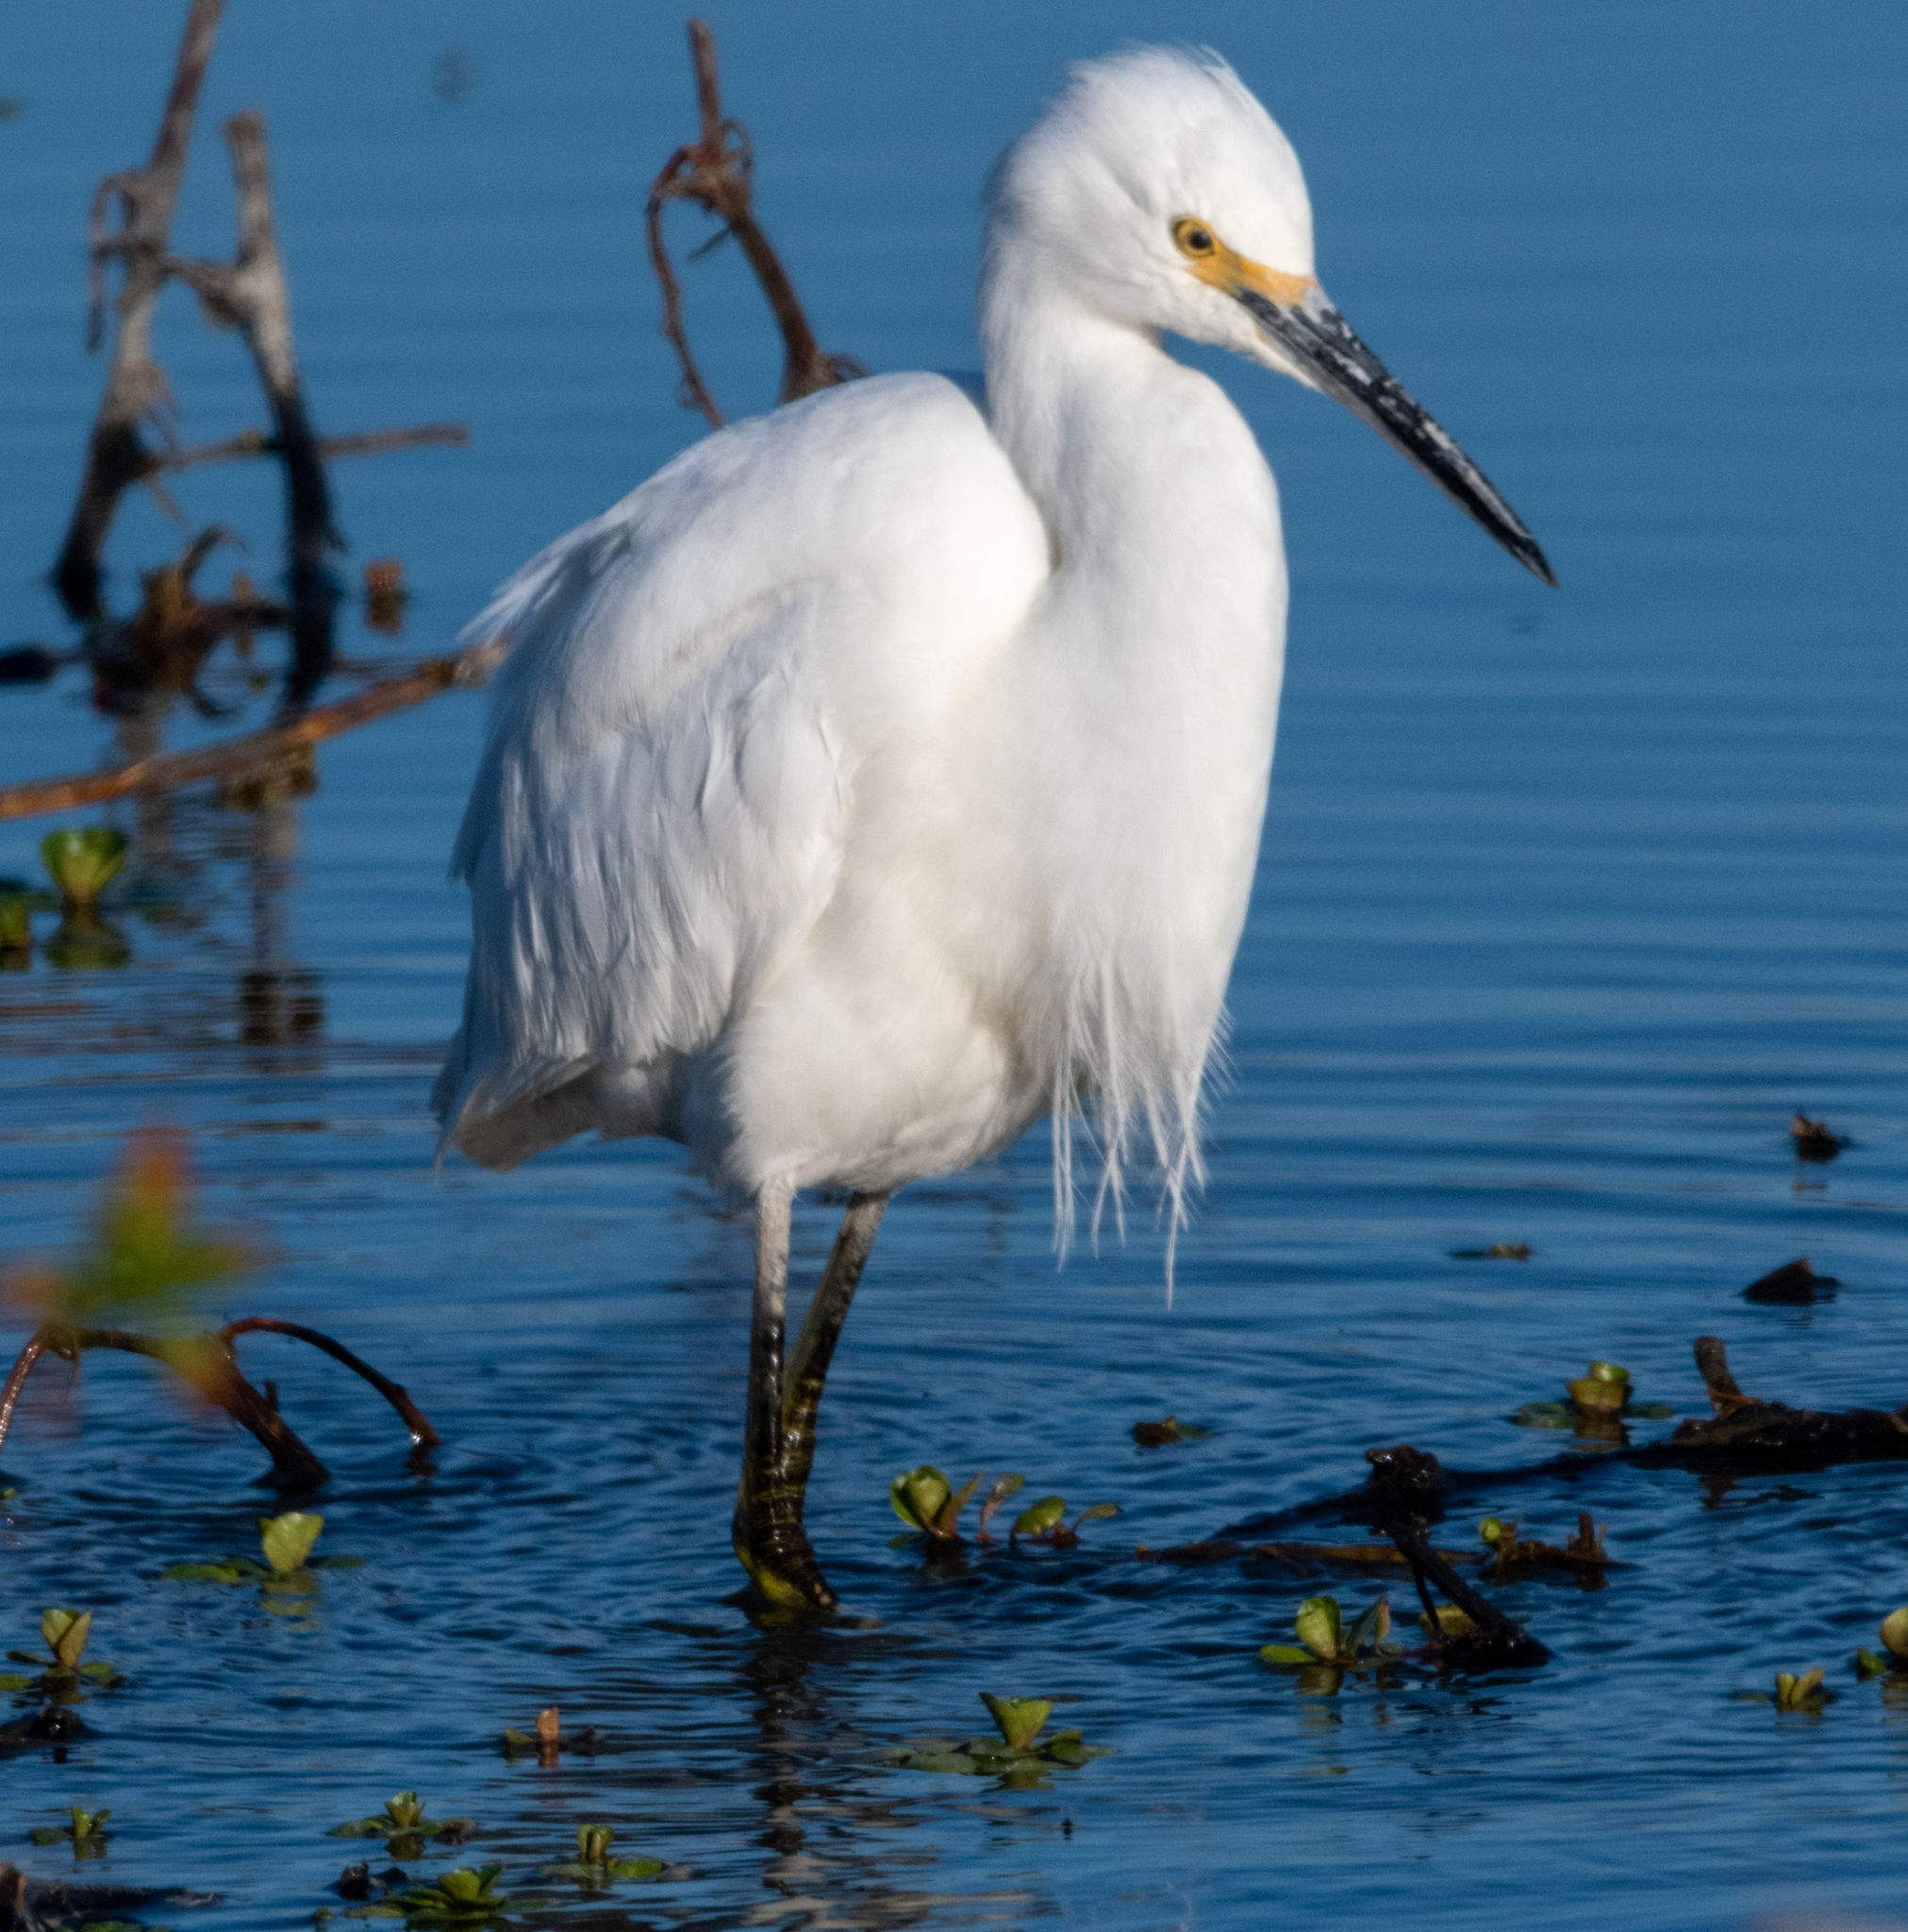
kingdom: Animalia
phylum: Chordata
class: Aves
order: Pelecaniformes
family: Ardeidae
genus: Egretta
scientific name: Egretta thula
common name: Snowy egret
